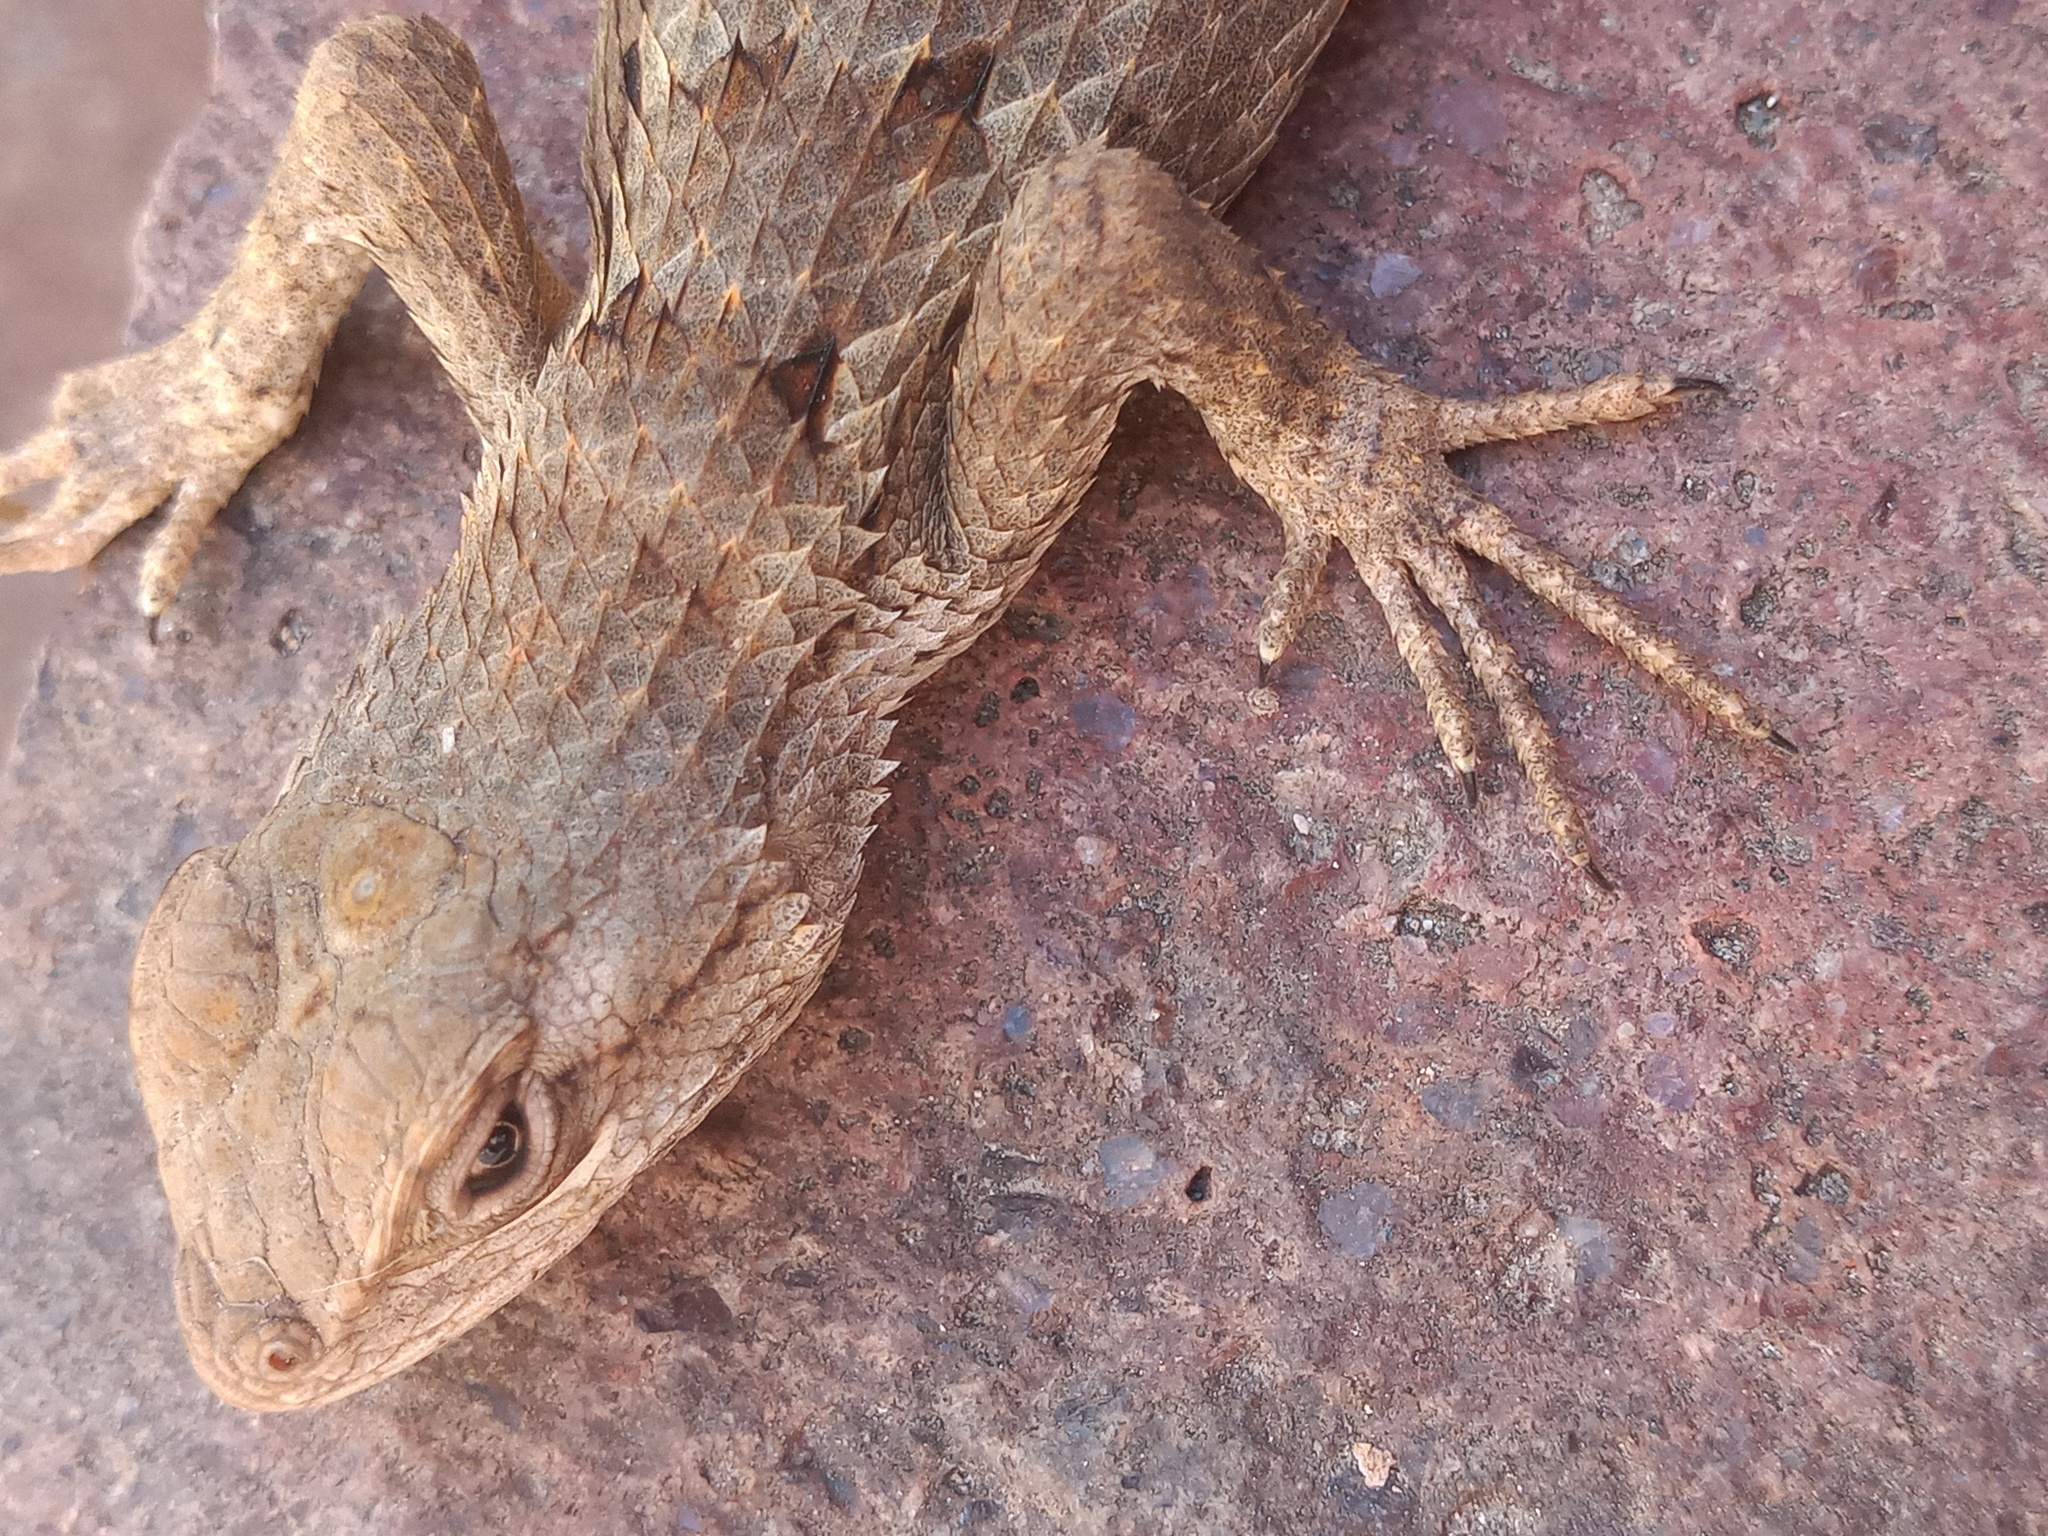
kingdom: Animalia
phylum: Chordata
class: Squamata
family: Phrynosomatidae
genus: Sceloporus
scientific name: Sceloporus olivaceus
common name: Texas spiny lizard
